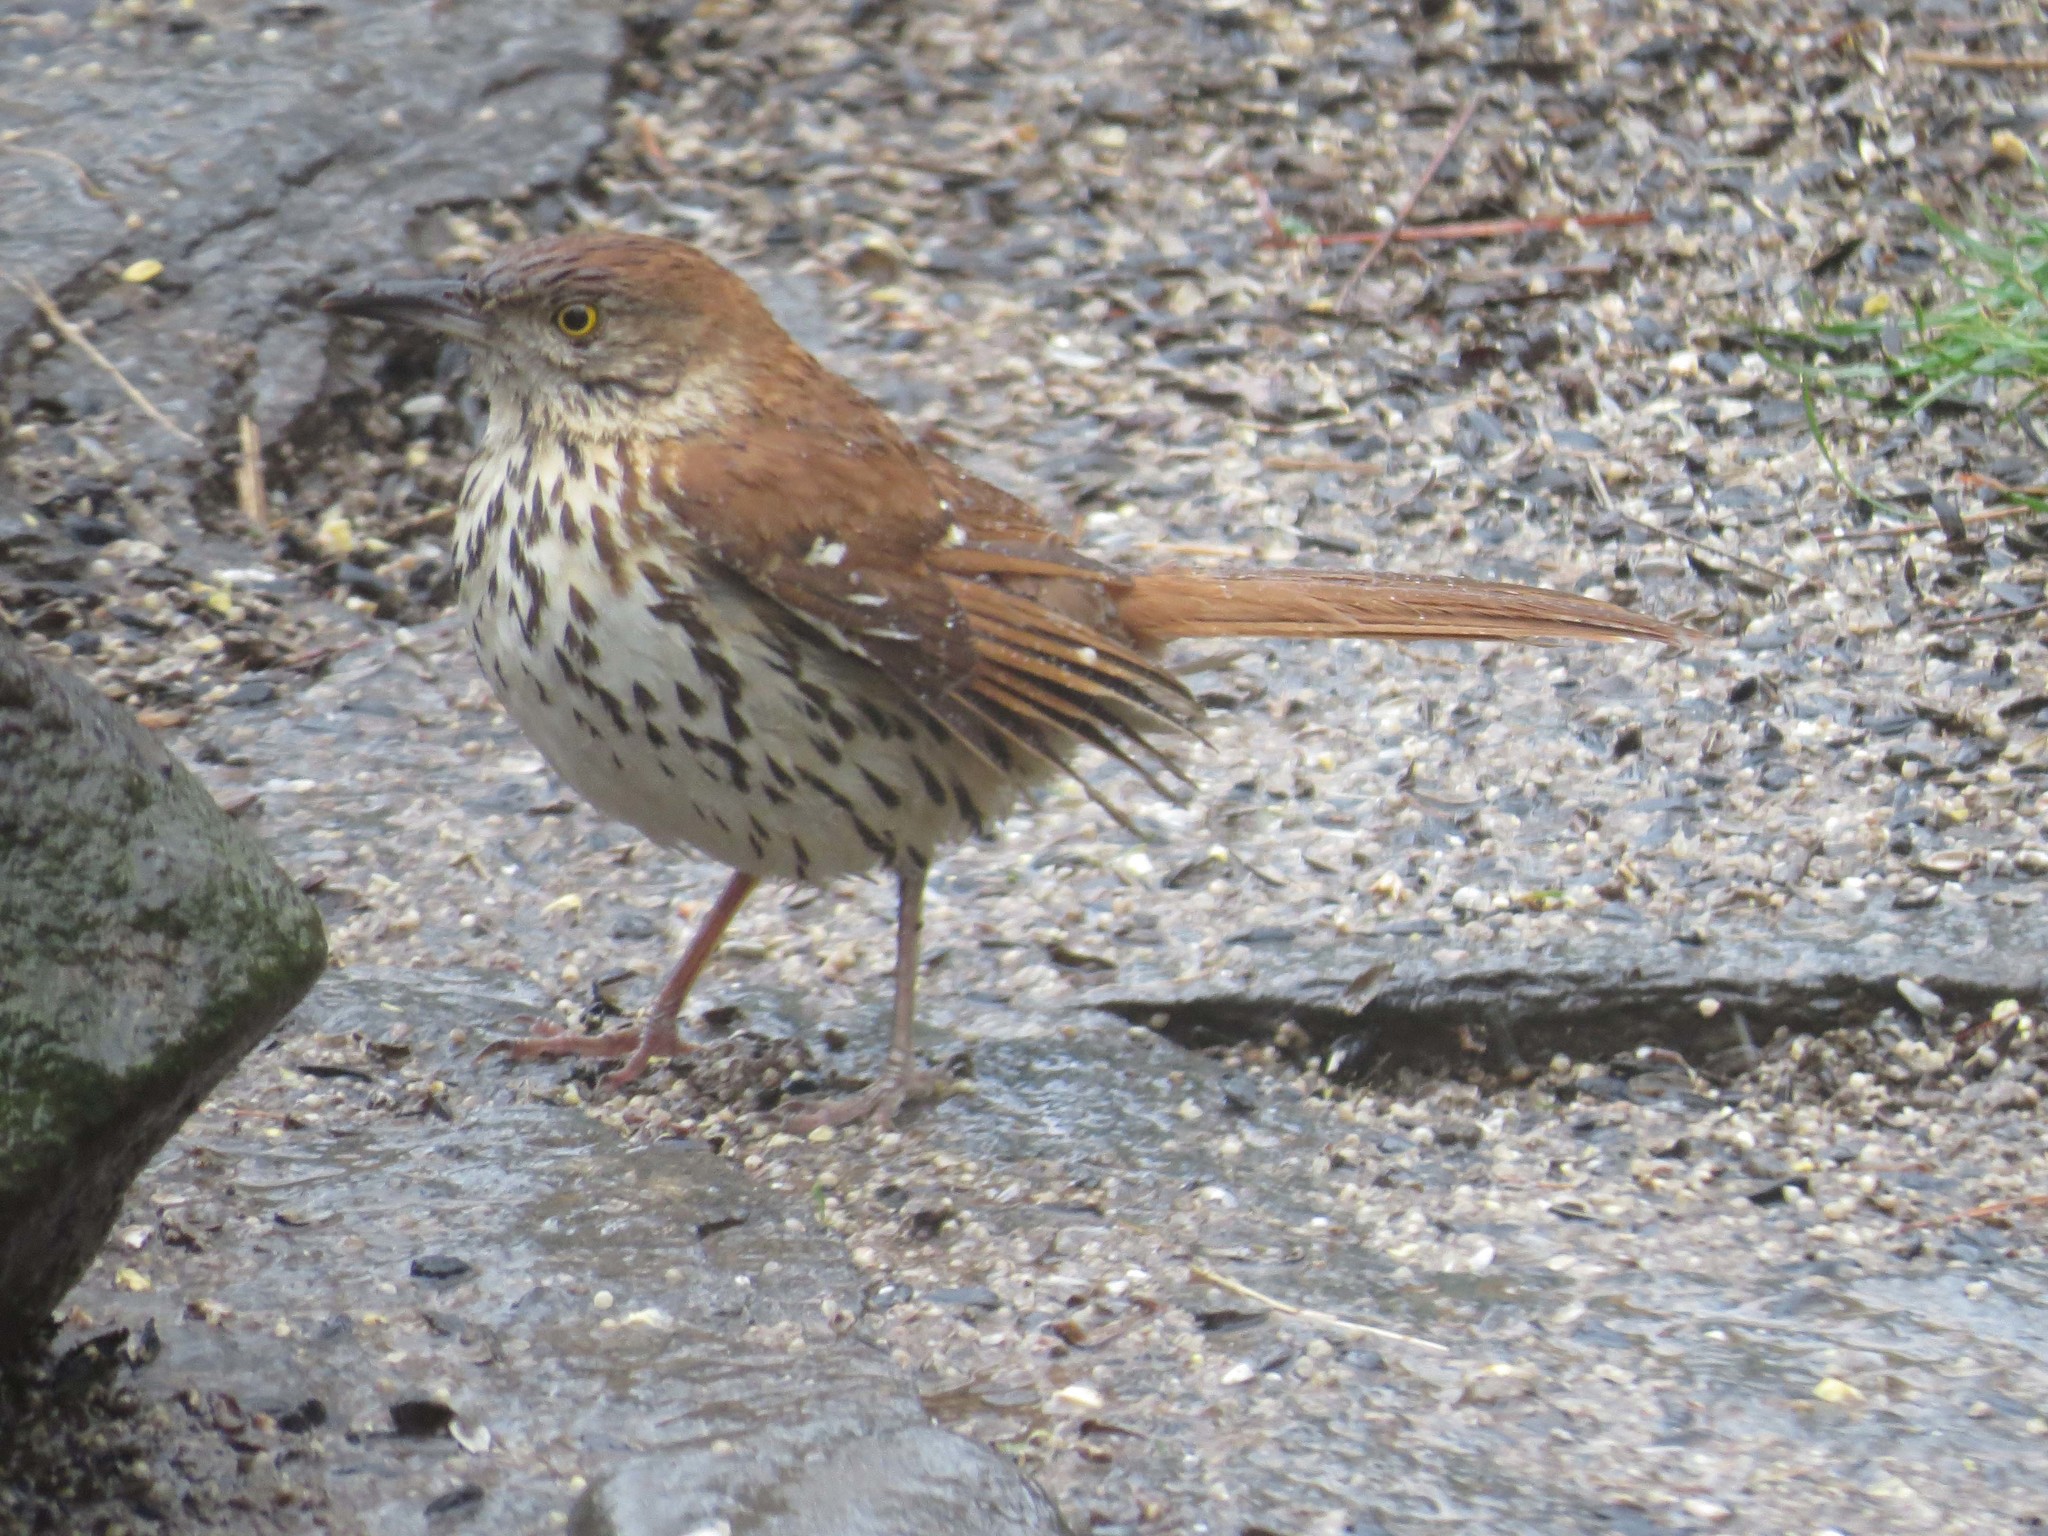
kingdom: Animalia
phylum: Chordata
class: Aves
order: Passeriformes
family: Mimidae
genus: Toxostoma
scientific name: Toxostoma rufum
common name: Brown thrasher
